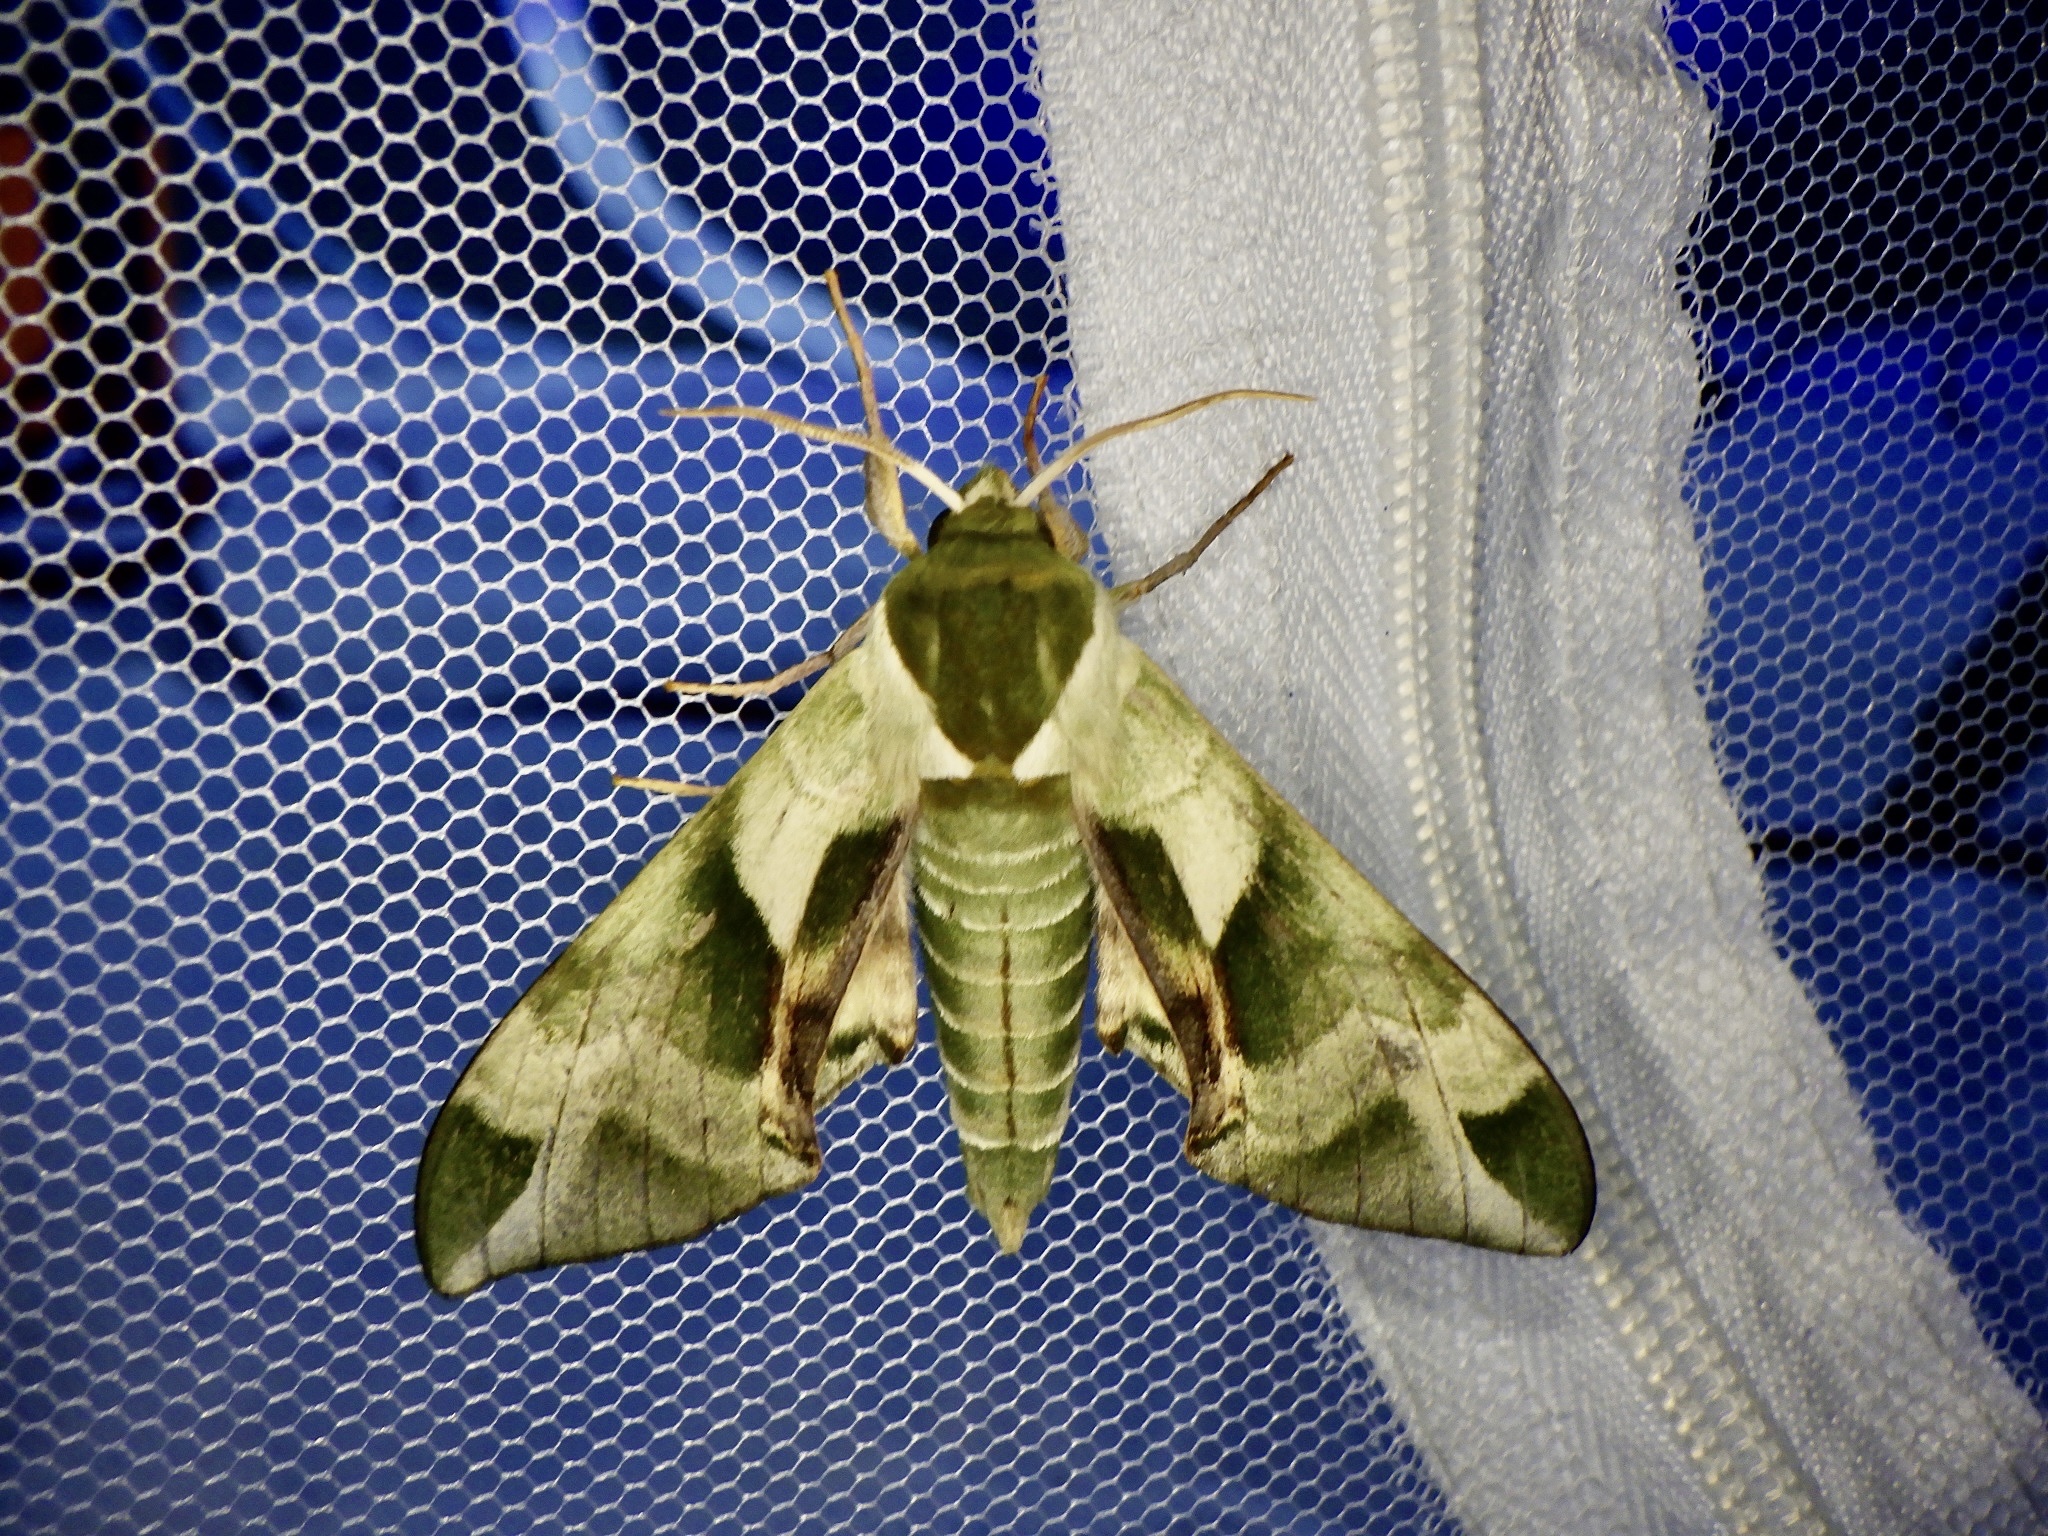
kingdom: Animalia
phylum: Arthropoda
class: Insecta
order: Lepidoptera
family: Sphingidae
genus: Callambulyx
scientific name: Callambulyx tatarinovii
